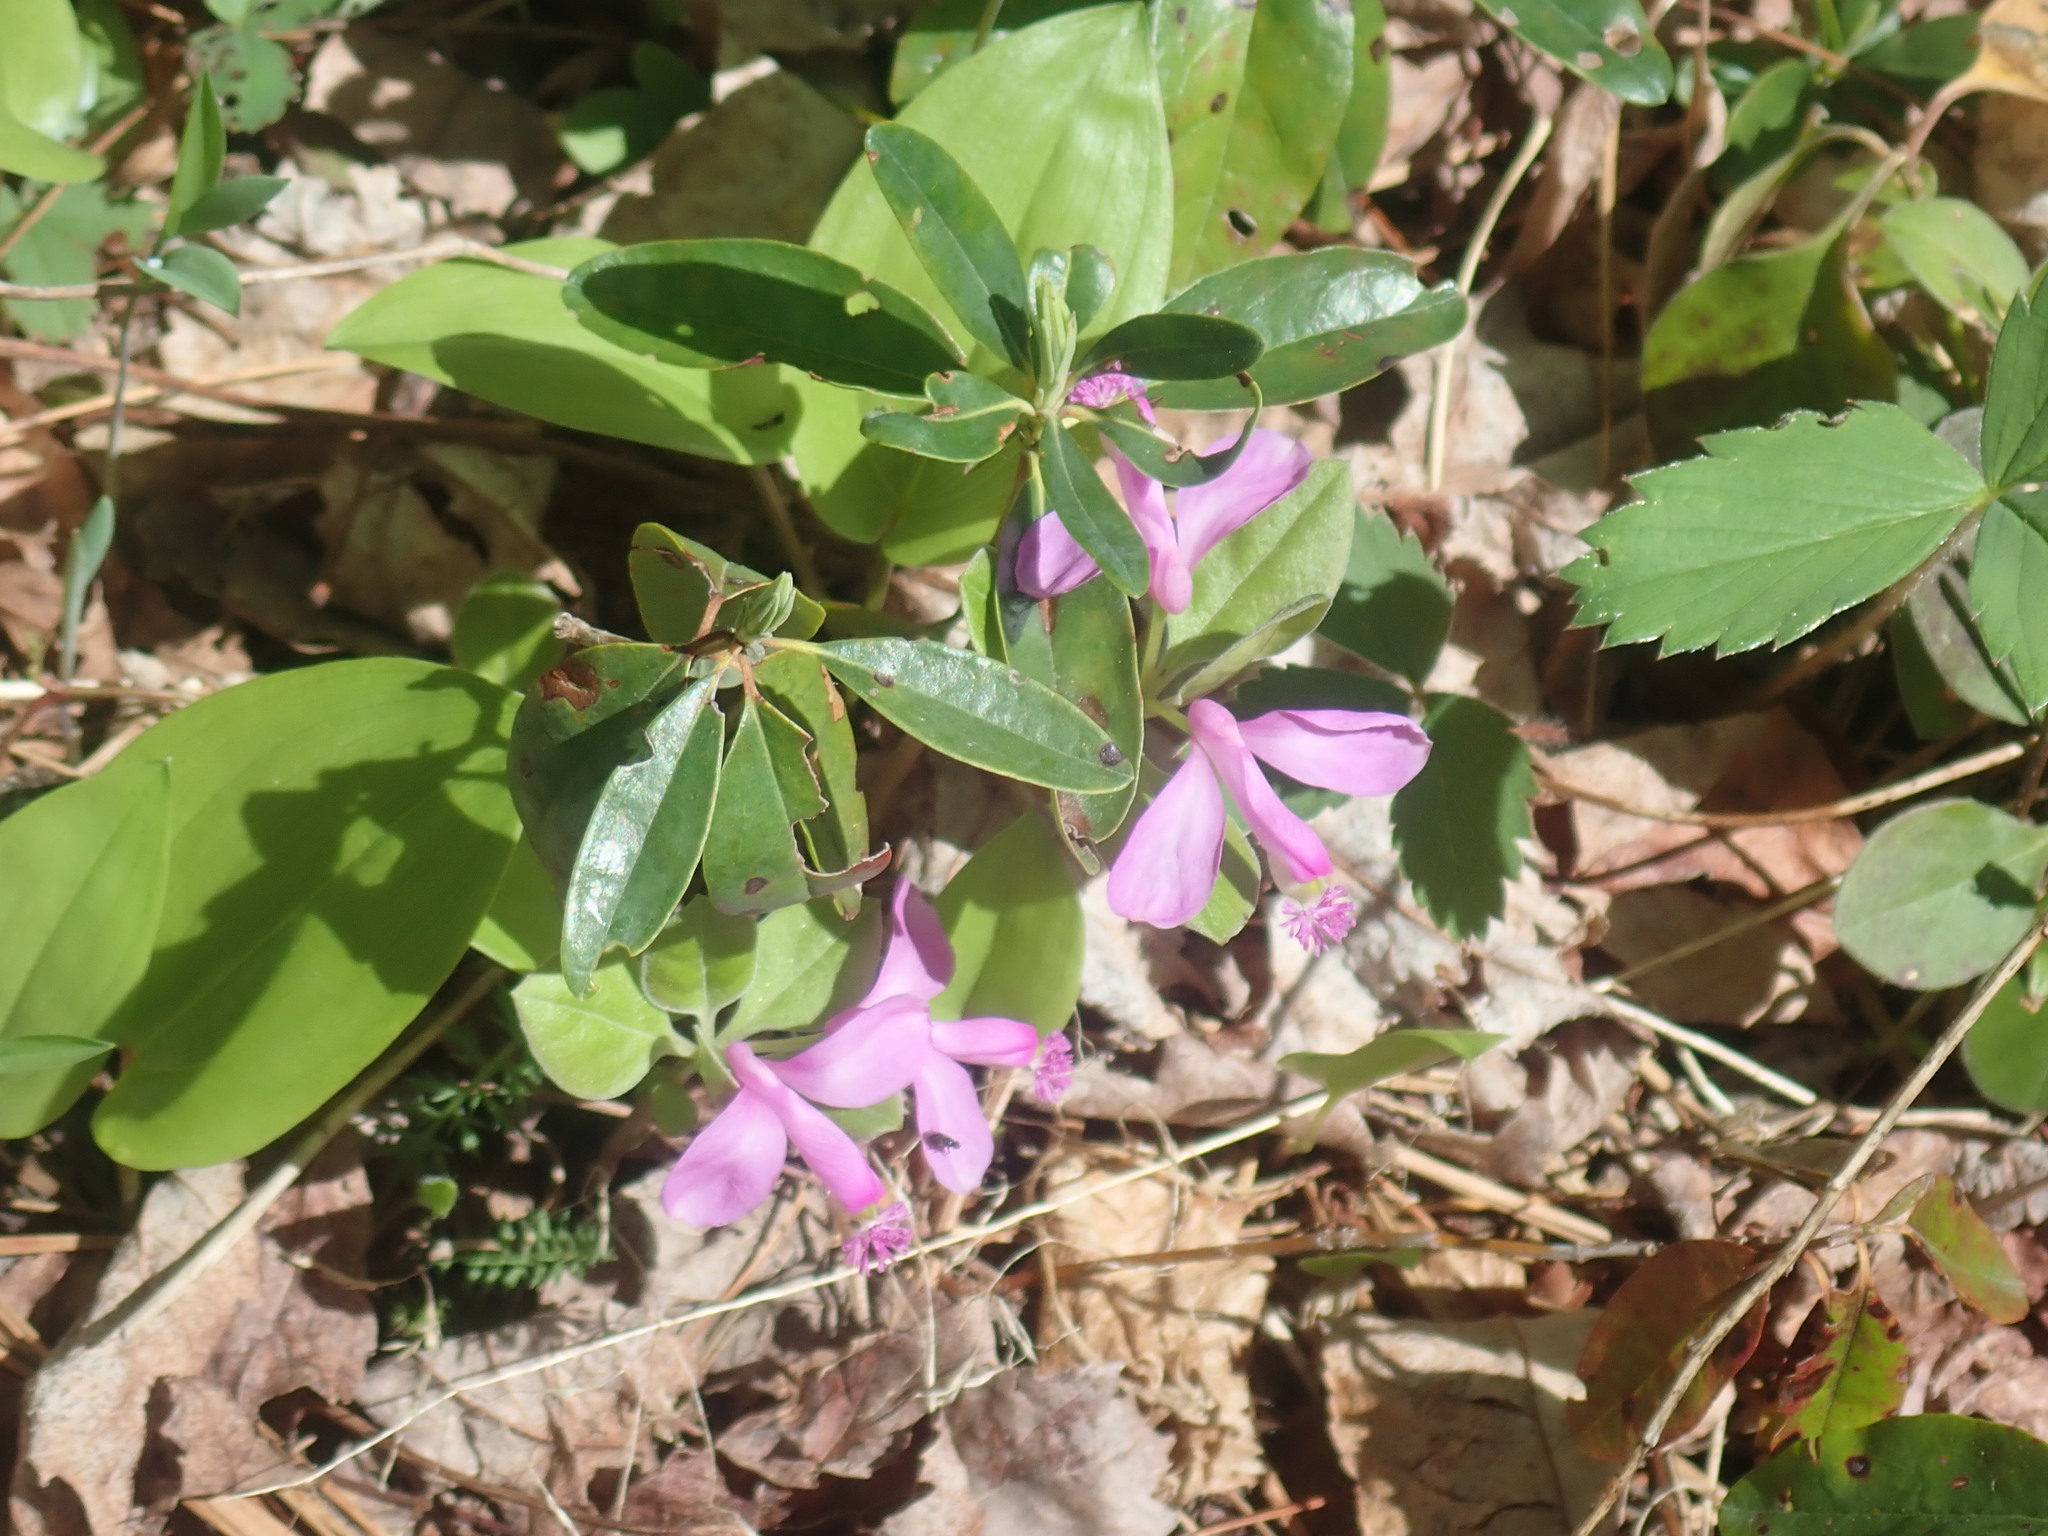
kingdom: Plantae
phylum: Tracheophyta
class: Magnoliopsida
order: Fabales
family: Polygalaceae
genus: Polygaloides
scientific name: Polygaloides paucifolia
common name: Bird-on-the-wing
